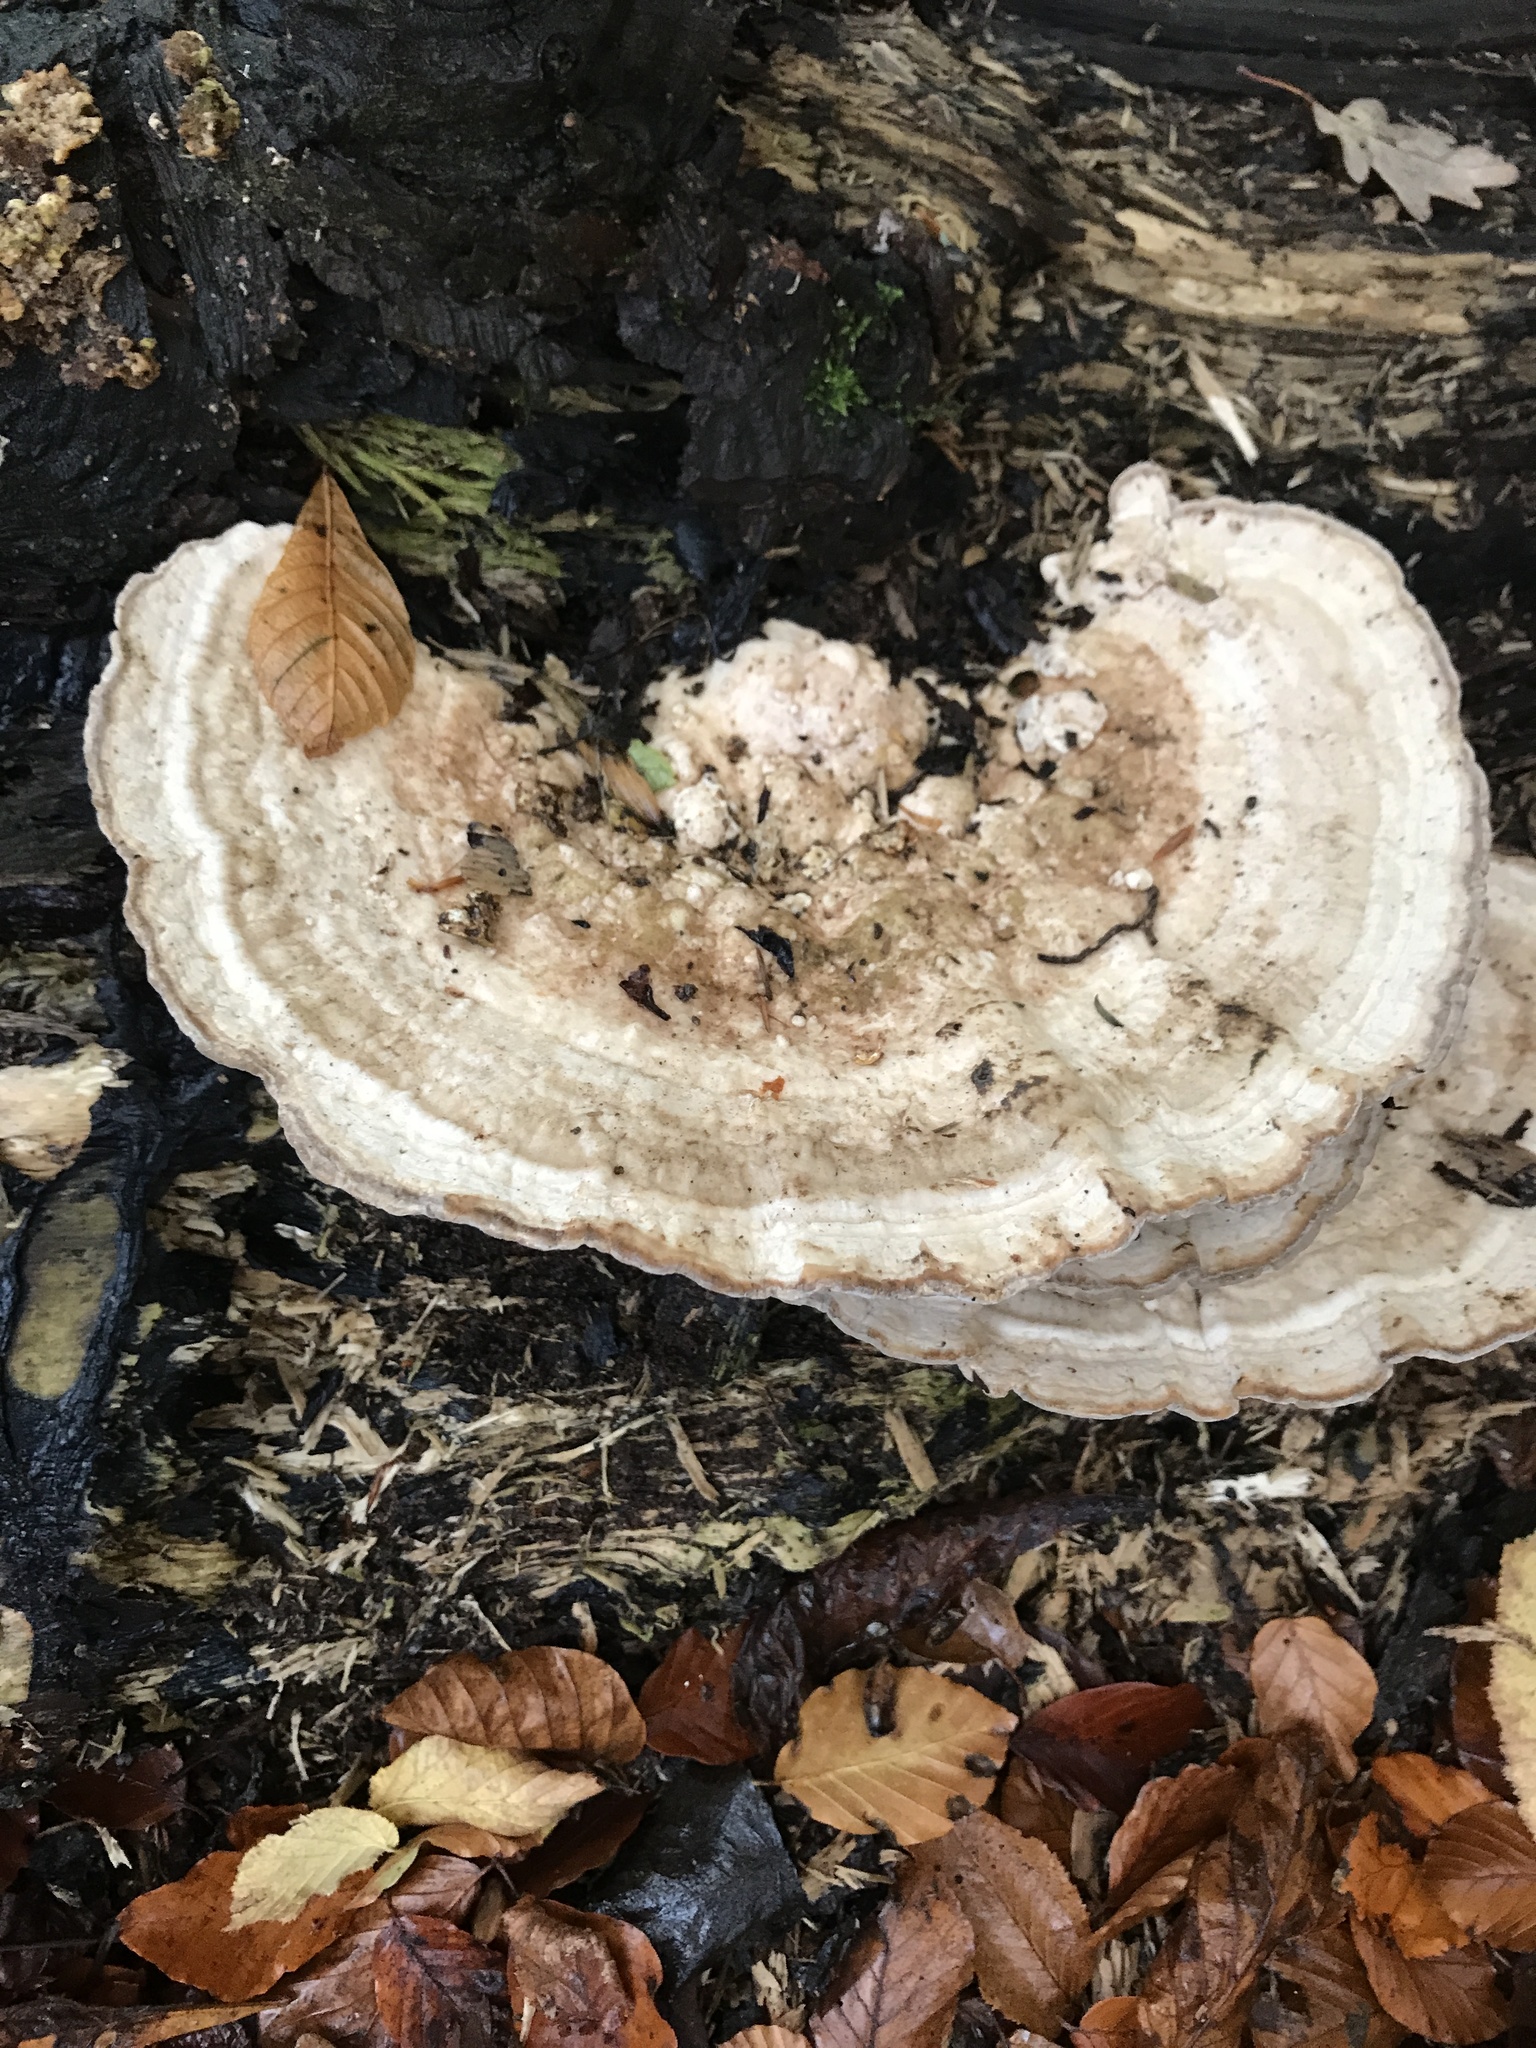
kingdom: Fungi
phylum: Basidiomycota
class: Agaricomycetes
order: Polyporales
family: Polyporaceae
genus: Trametes
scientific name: Trametes gibbosa
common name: Lumpy bracket
